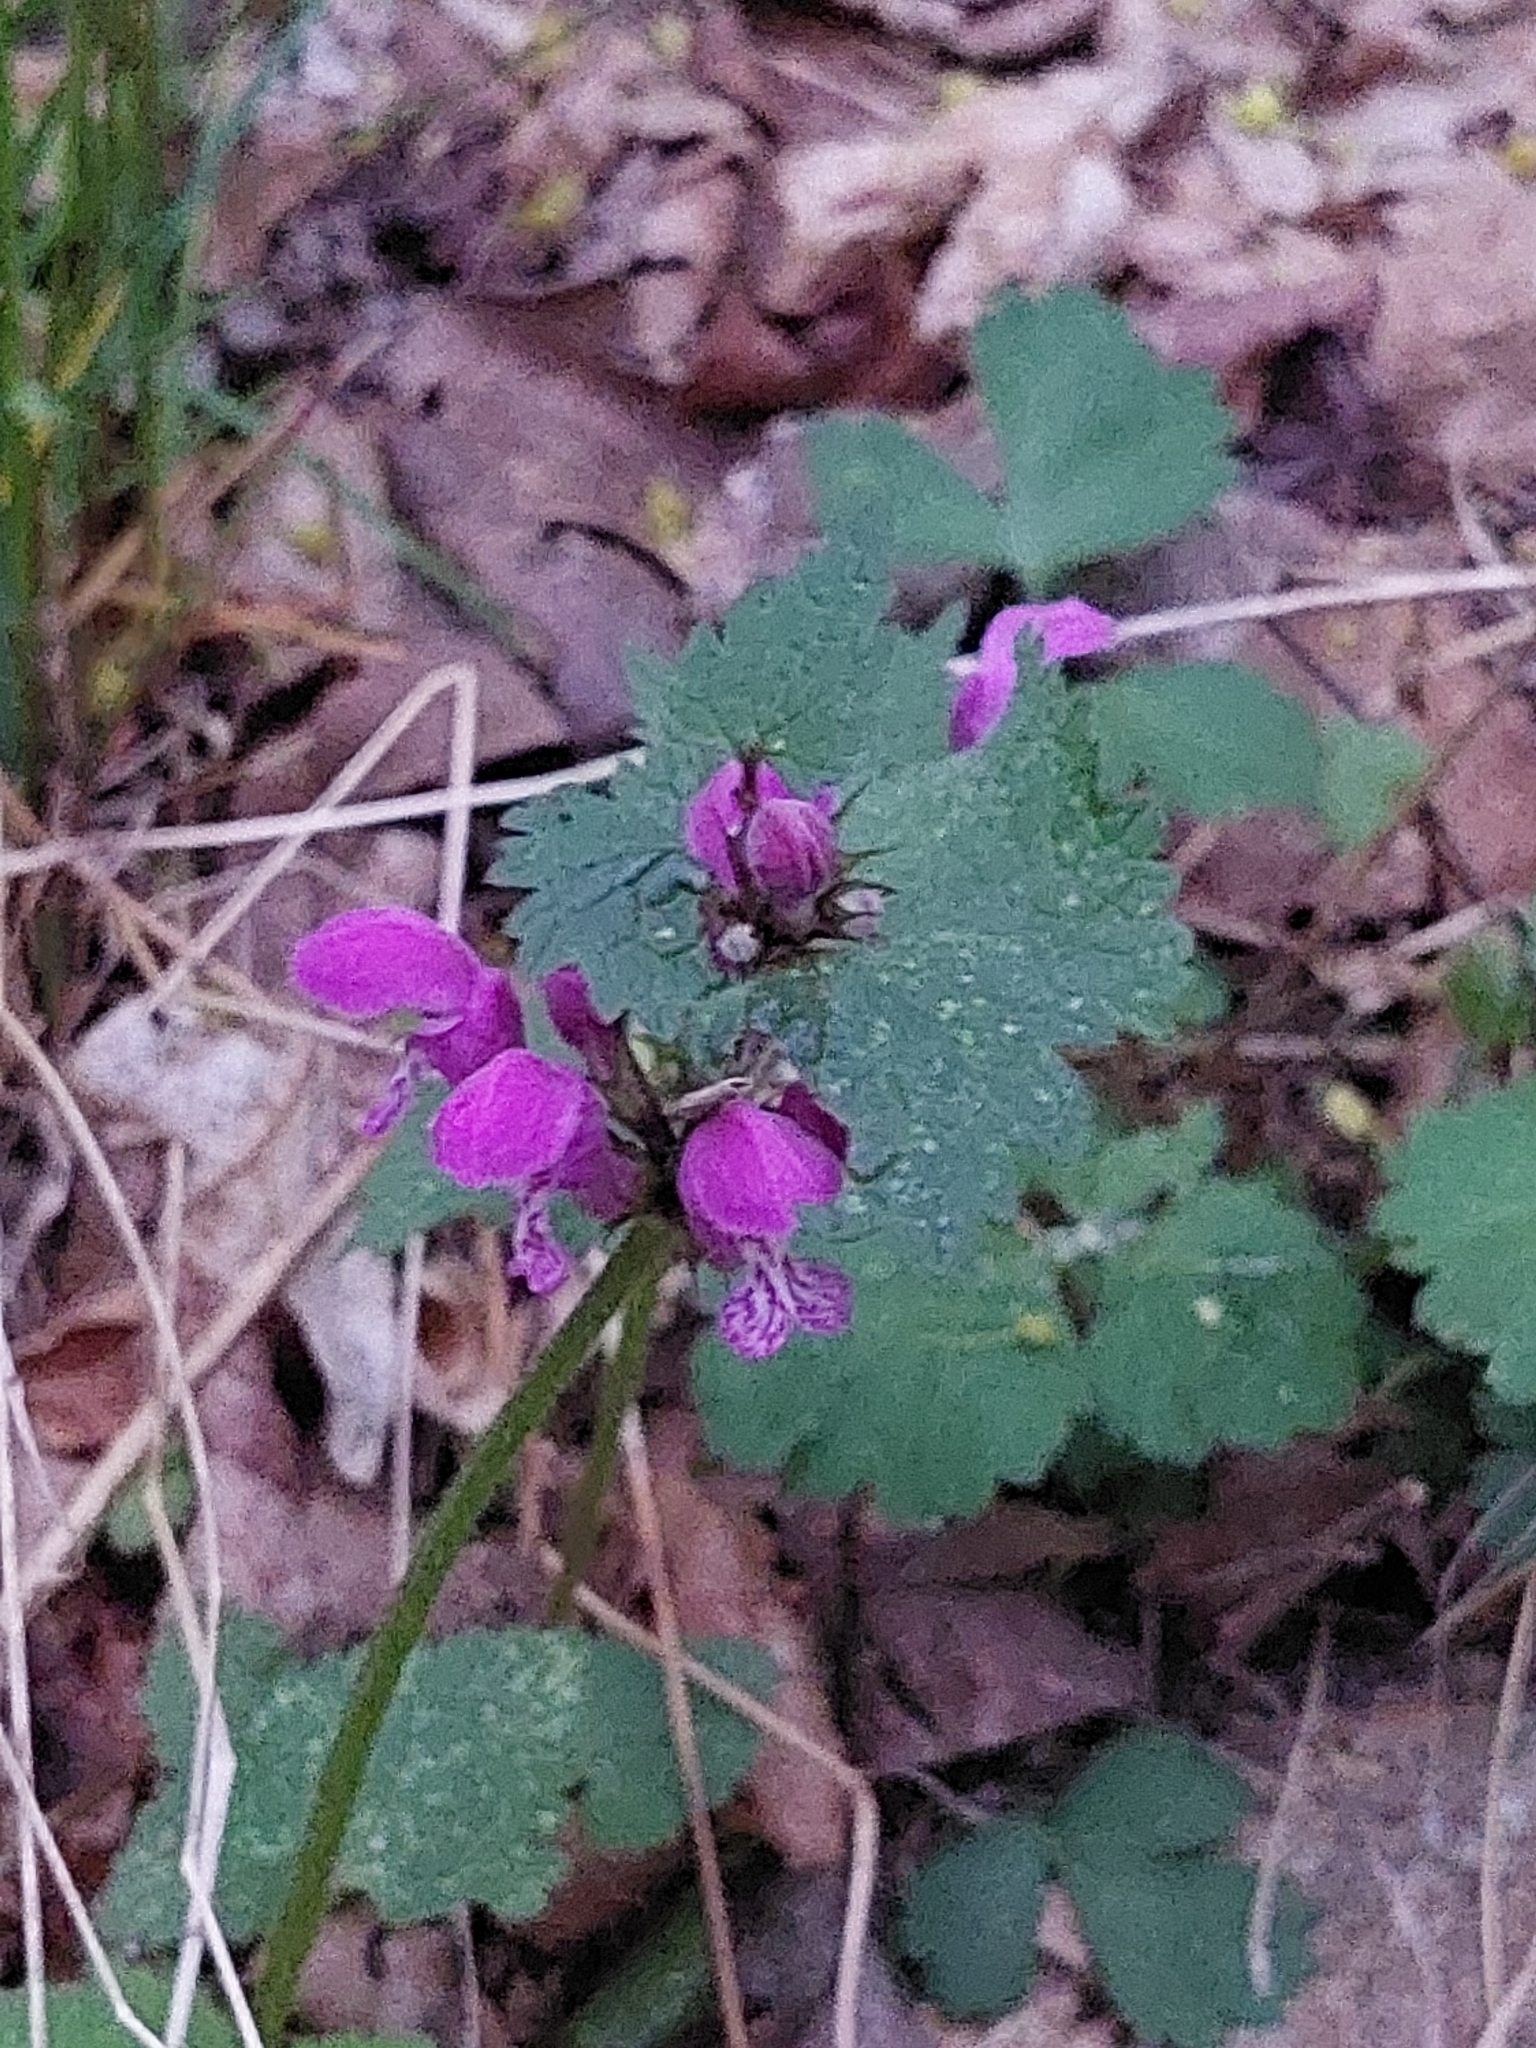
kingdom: Plantae
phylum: Tracheophyta
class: Magnoliopsida
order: Lamiales
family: Lamiaceae
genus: Lamium
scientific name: Lamium maculatum
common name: Spotted dead-nettle
